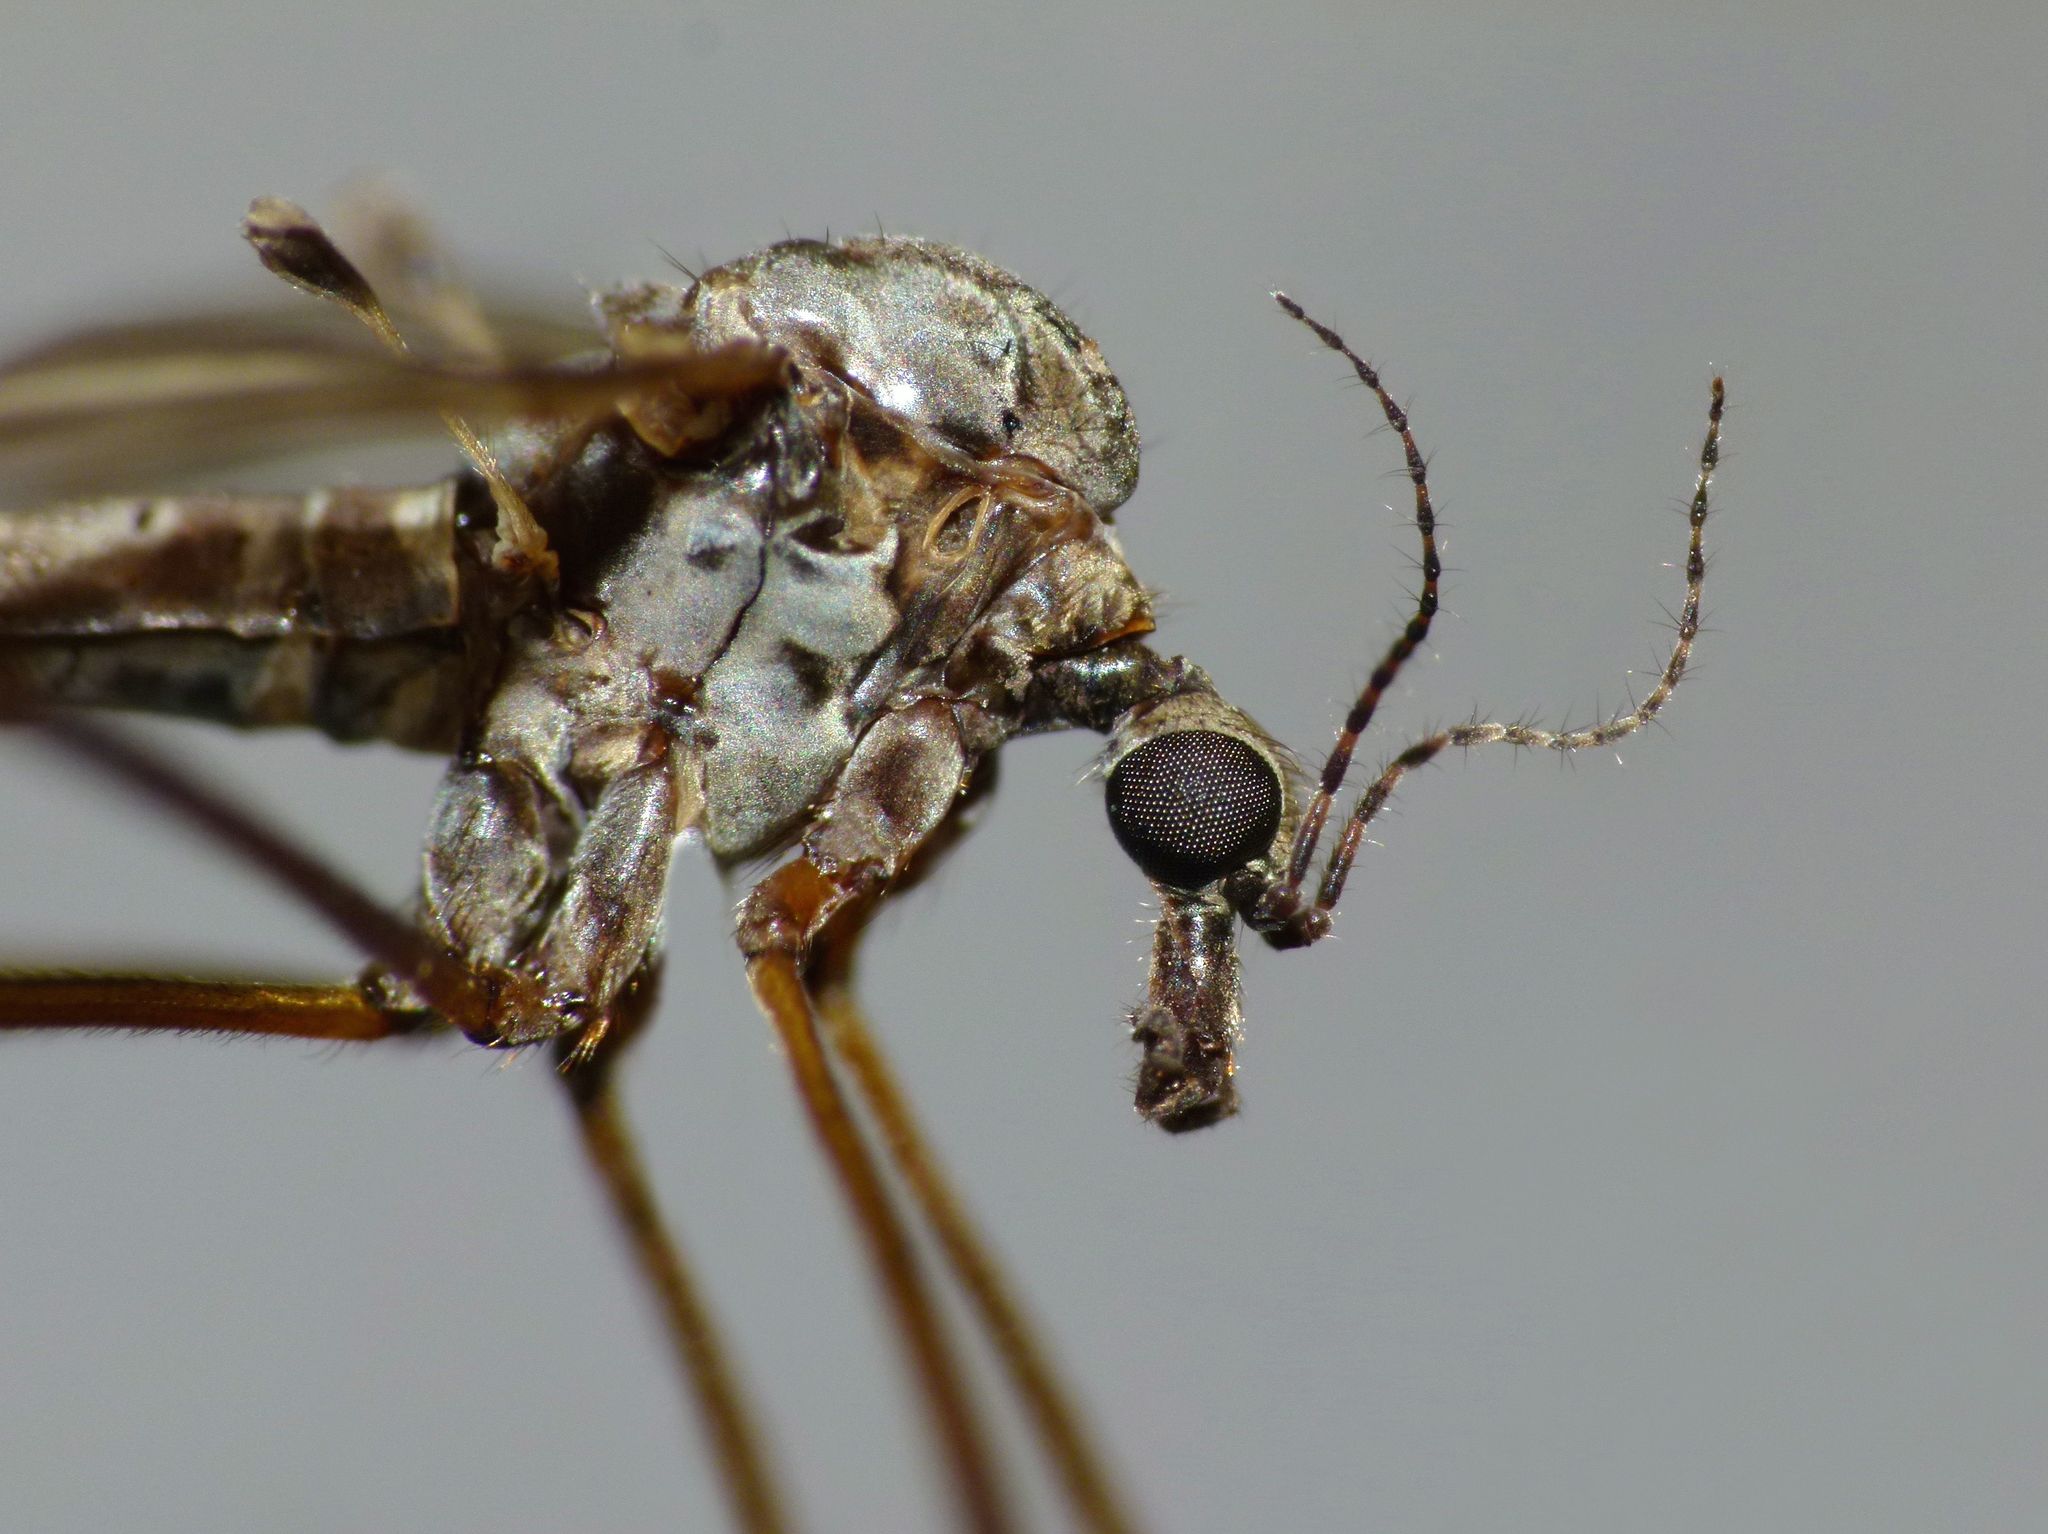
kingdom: Animalia
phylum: Arthropoda
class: Insecta
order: Diptera
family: Limoniidae
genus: Austrolimnophila
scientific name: Austrolimnophila atripes
